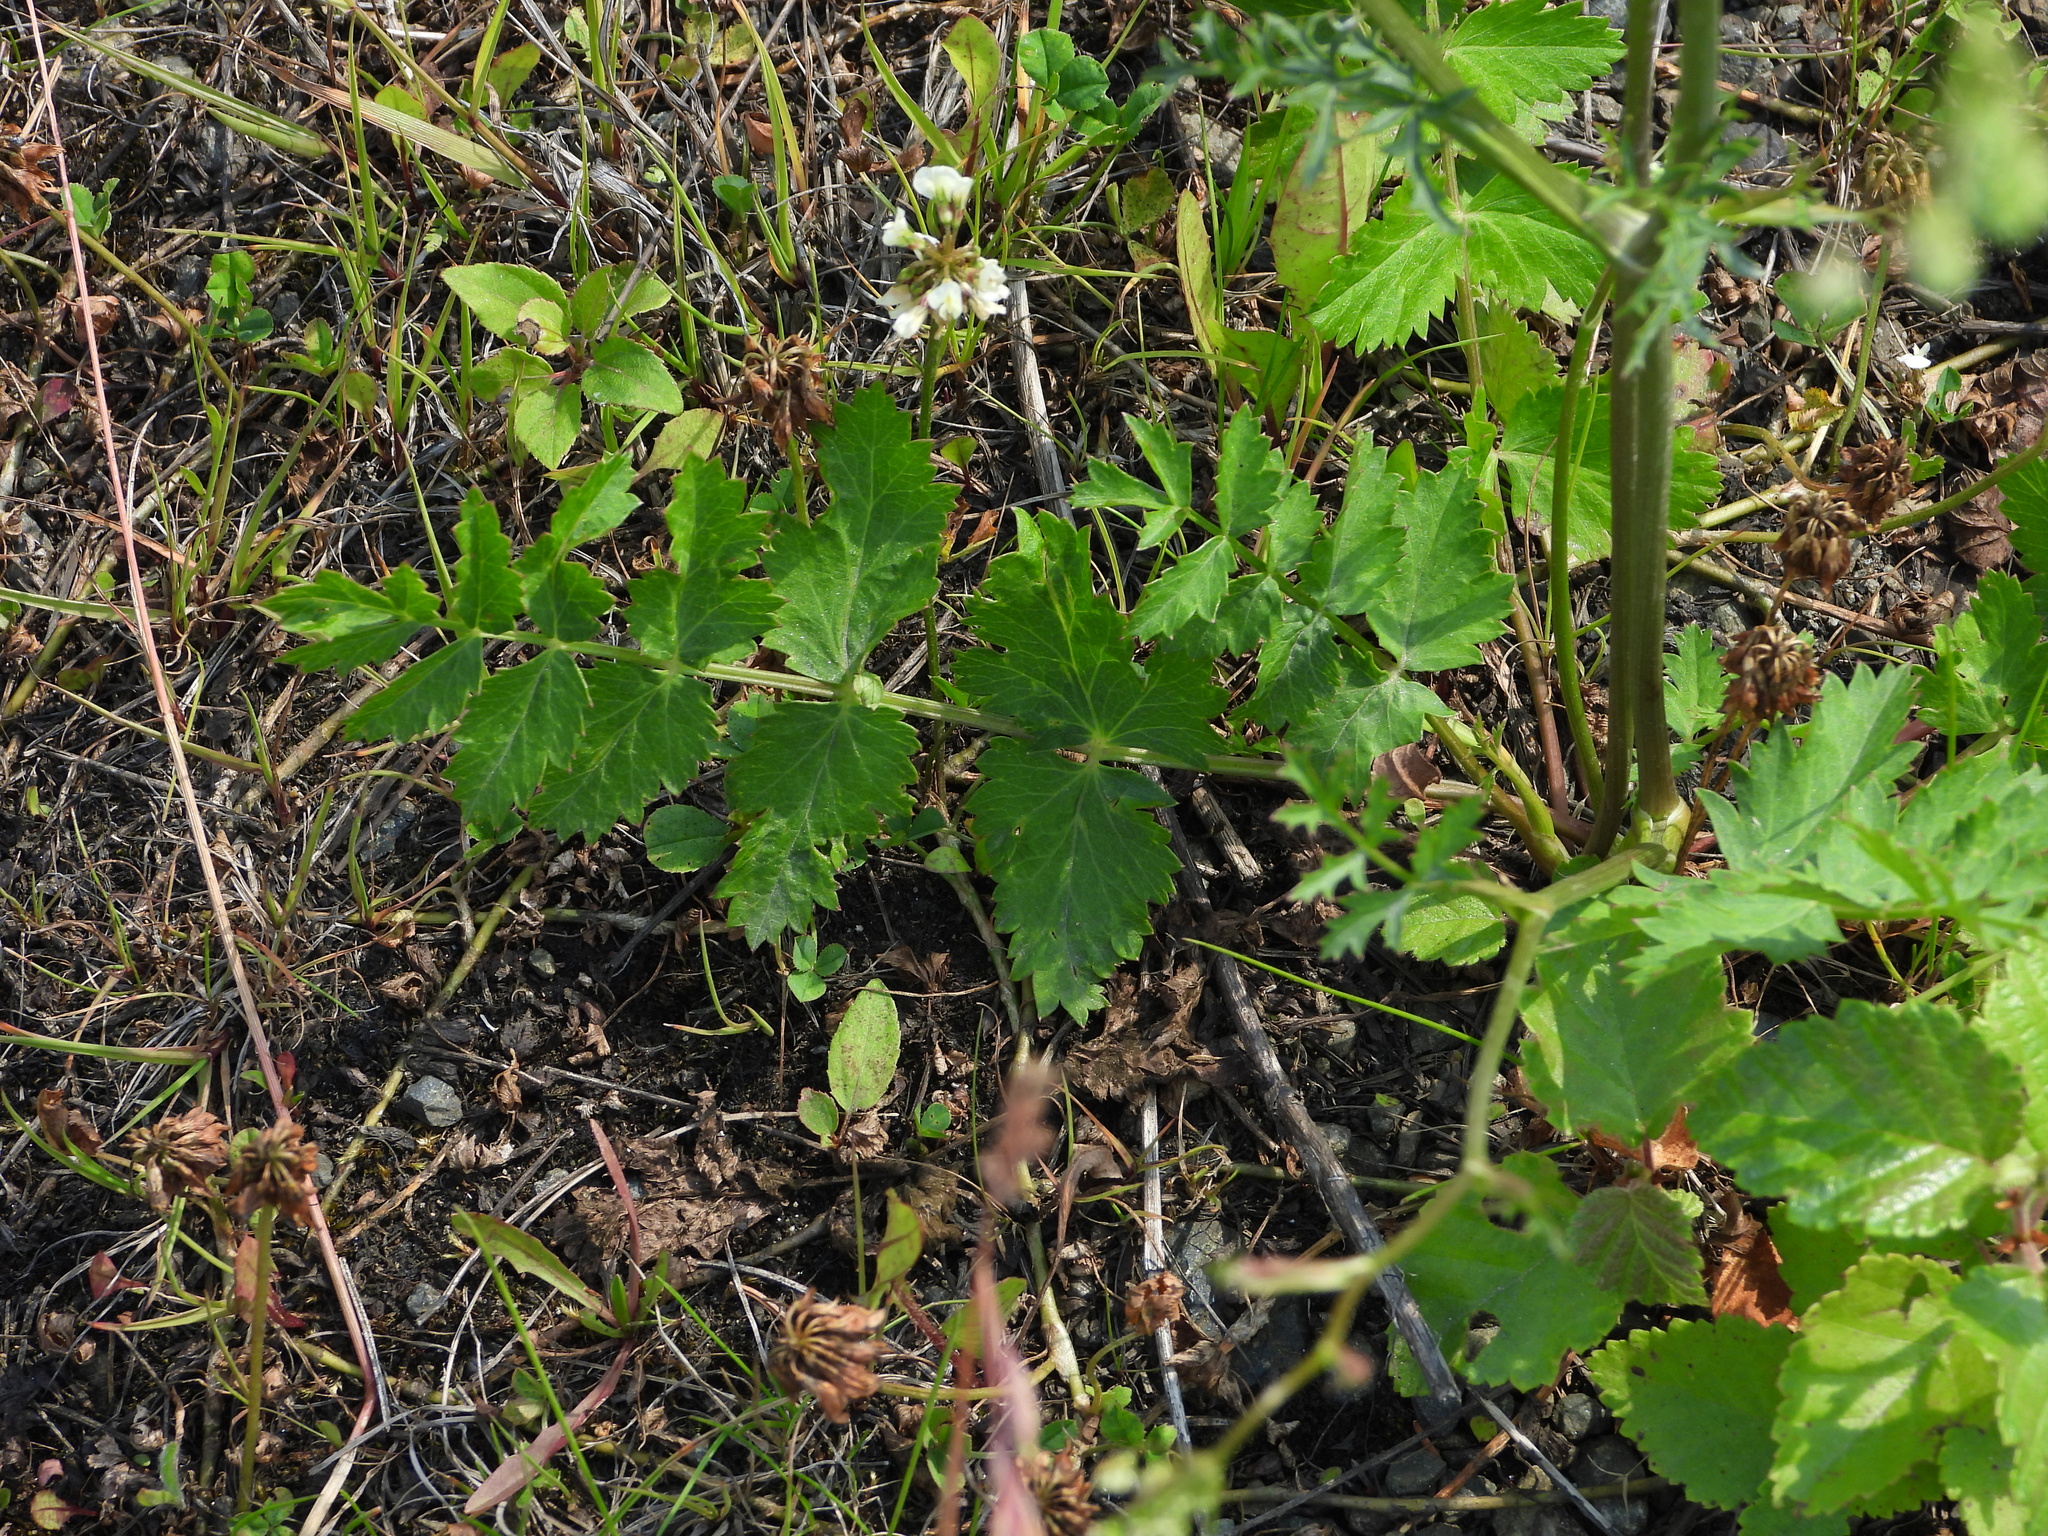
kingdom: Plantae
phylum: Tracheophyta
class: Magnoliopsida
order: Apiales
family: Apiaceae
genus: Pimpinella
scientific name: Pimpinella saxifraga
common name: Burnet-saxifrage
